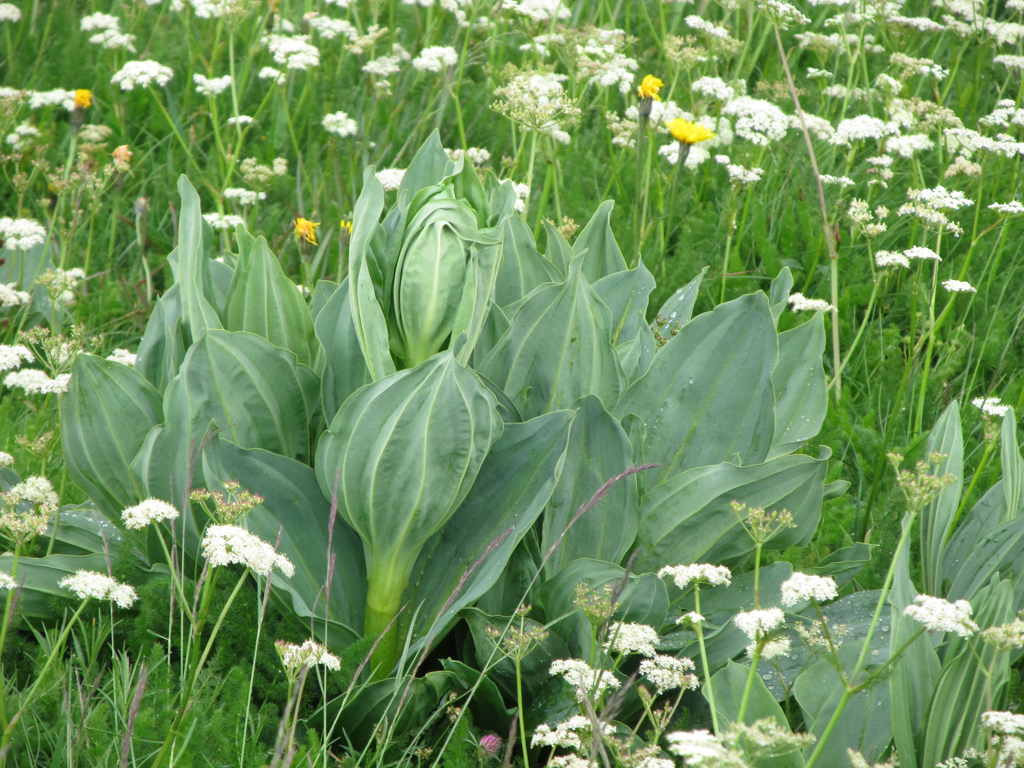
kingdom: Plantae
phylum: Tracheophyta
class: Magnoliopsida
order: Gentianales
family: Gentianaceae
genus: Gentiana
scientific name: Gentiana lutea
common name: Great yellow gentian
